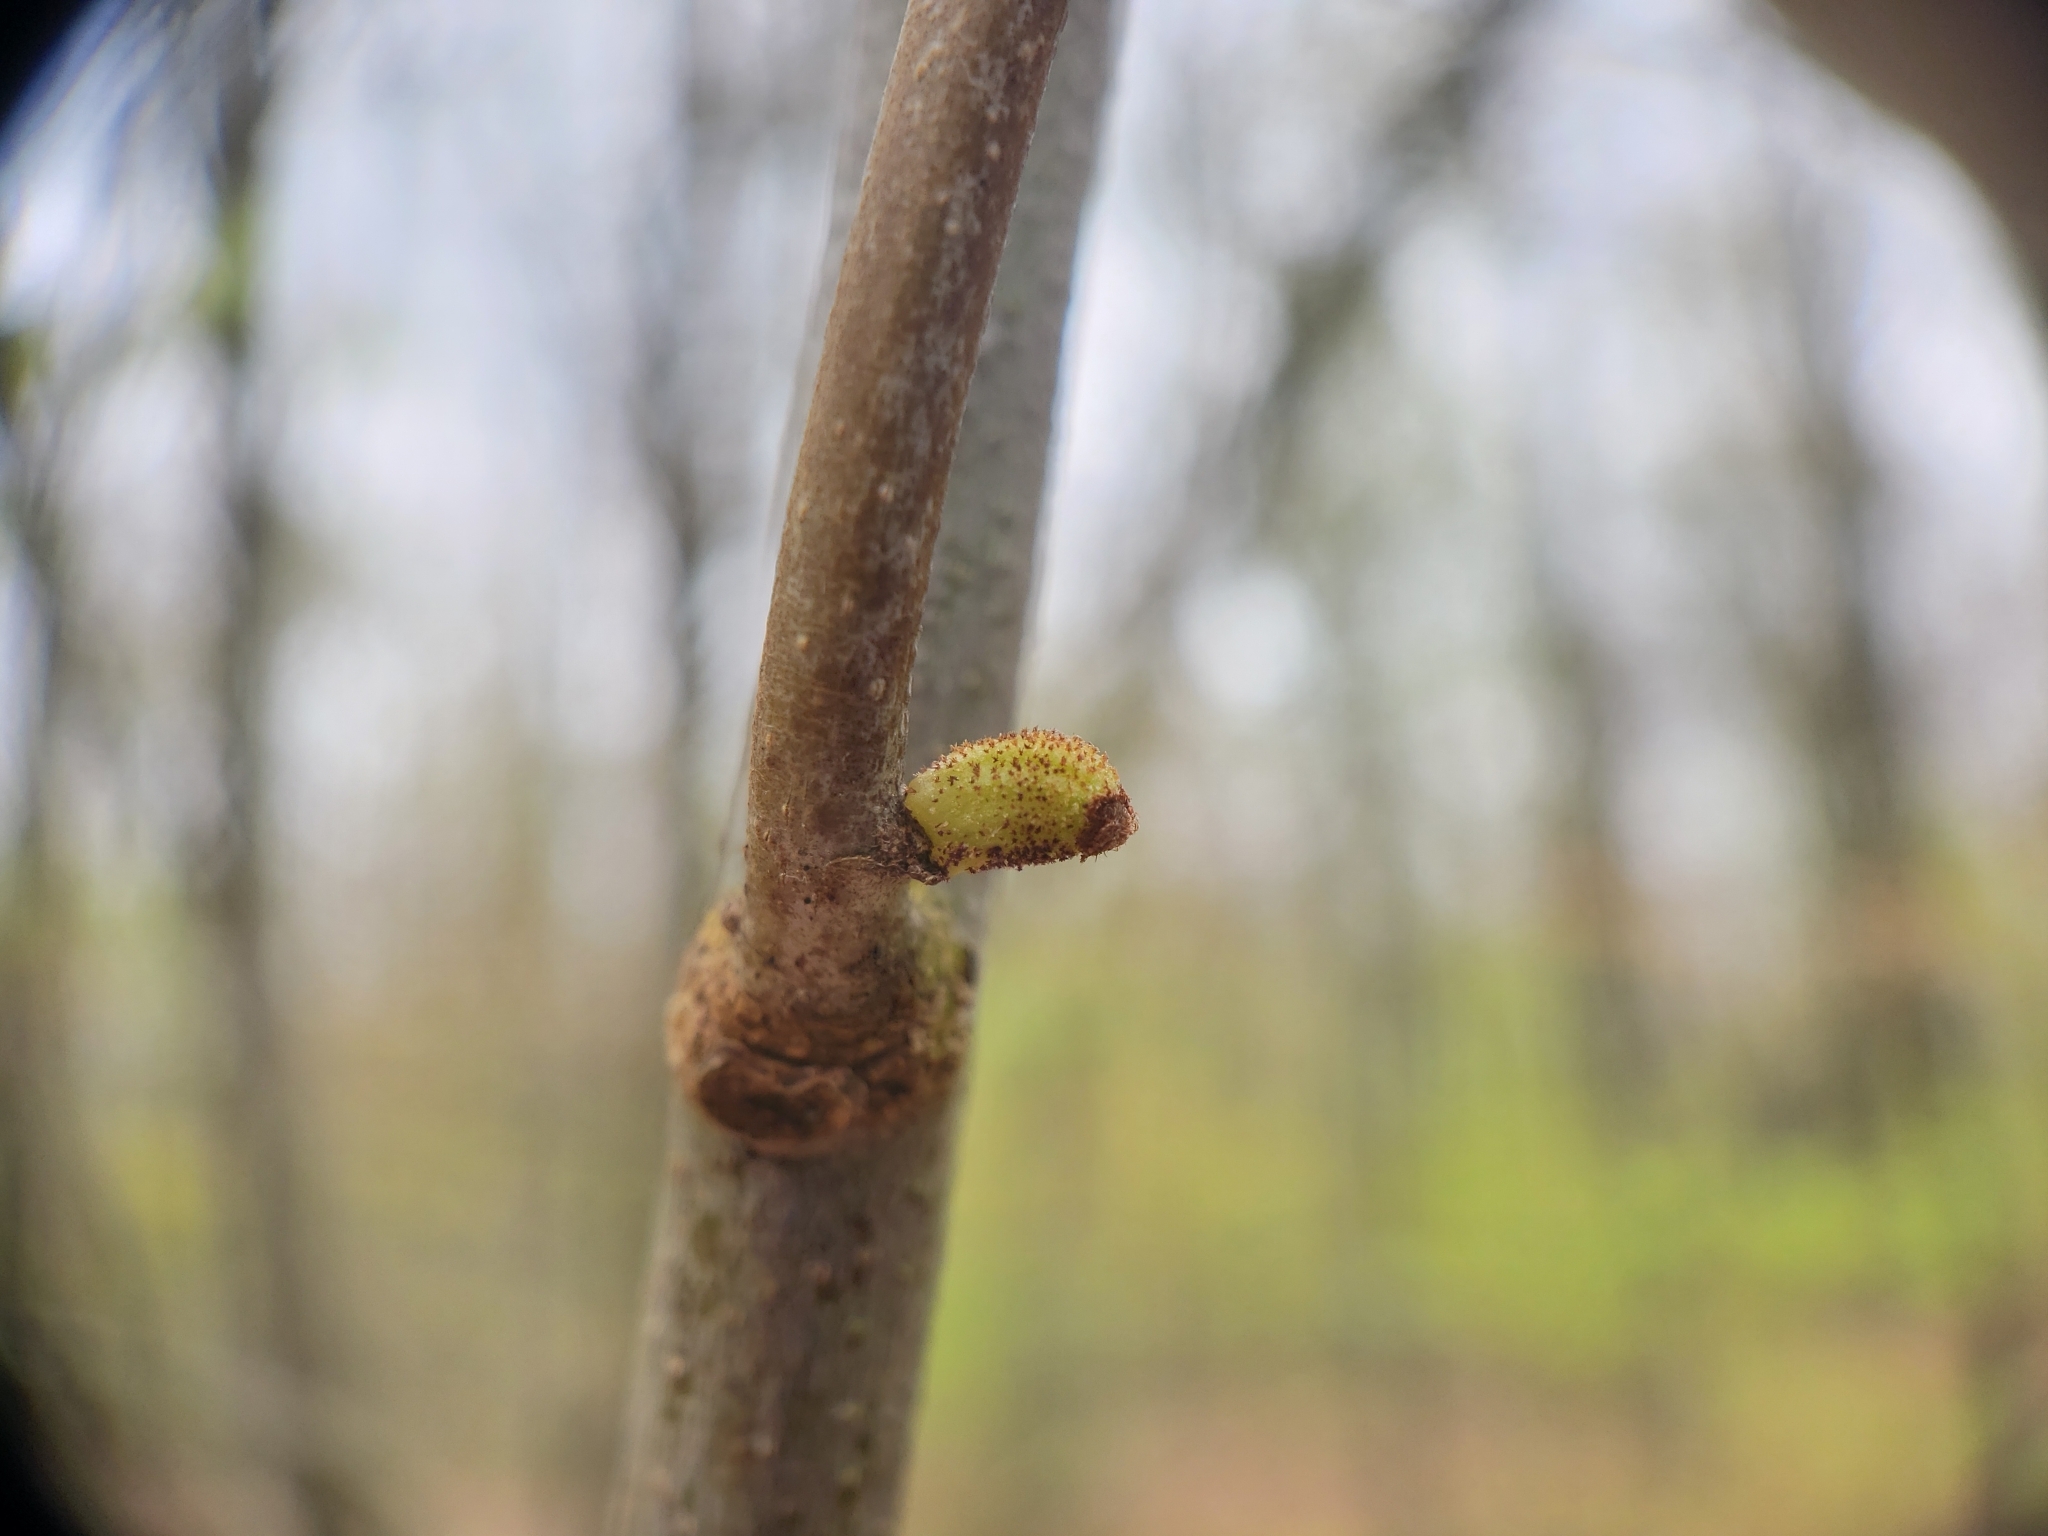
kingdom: Animalia
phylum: Arthropoda
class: Insecta
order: Hymenoptera
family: Cynipidae
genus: Callirhytis
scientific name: Callirhytis
